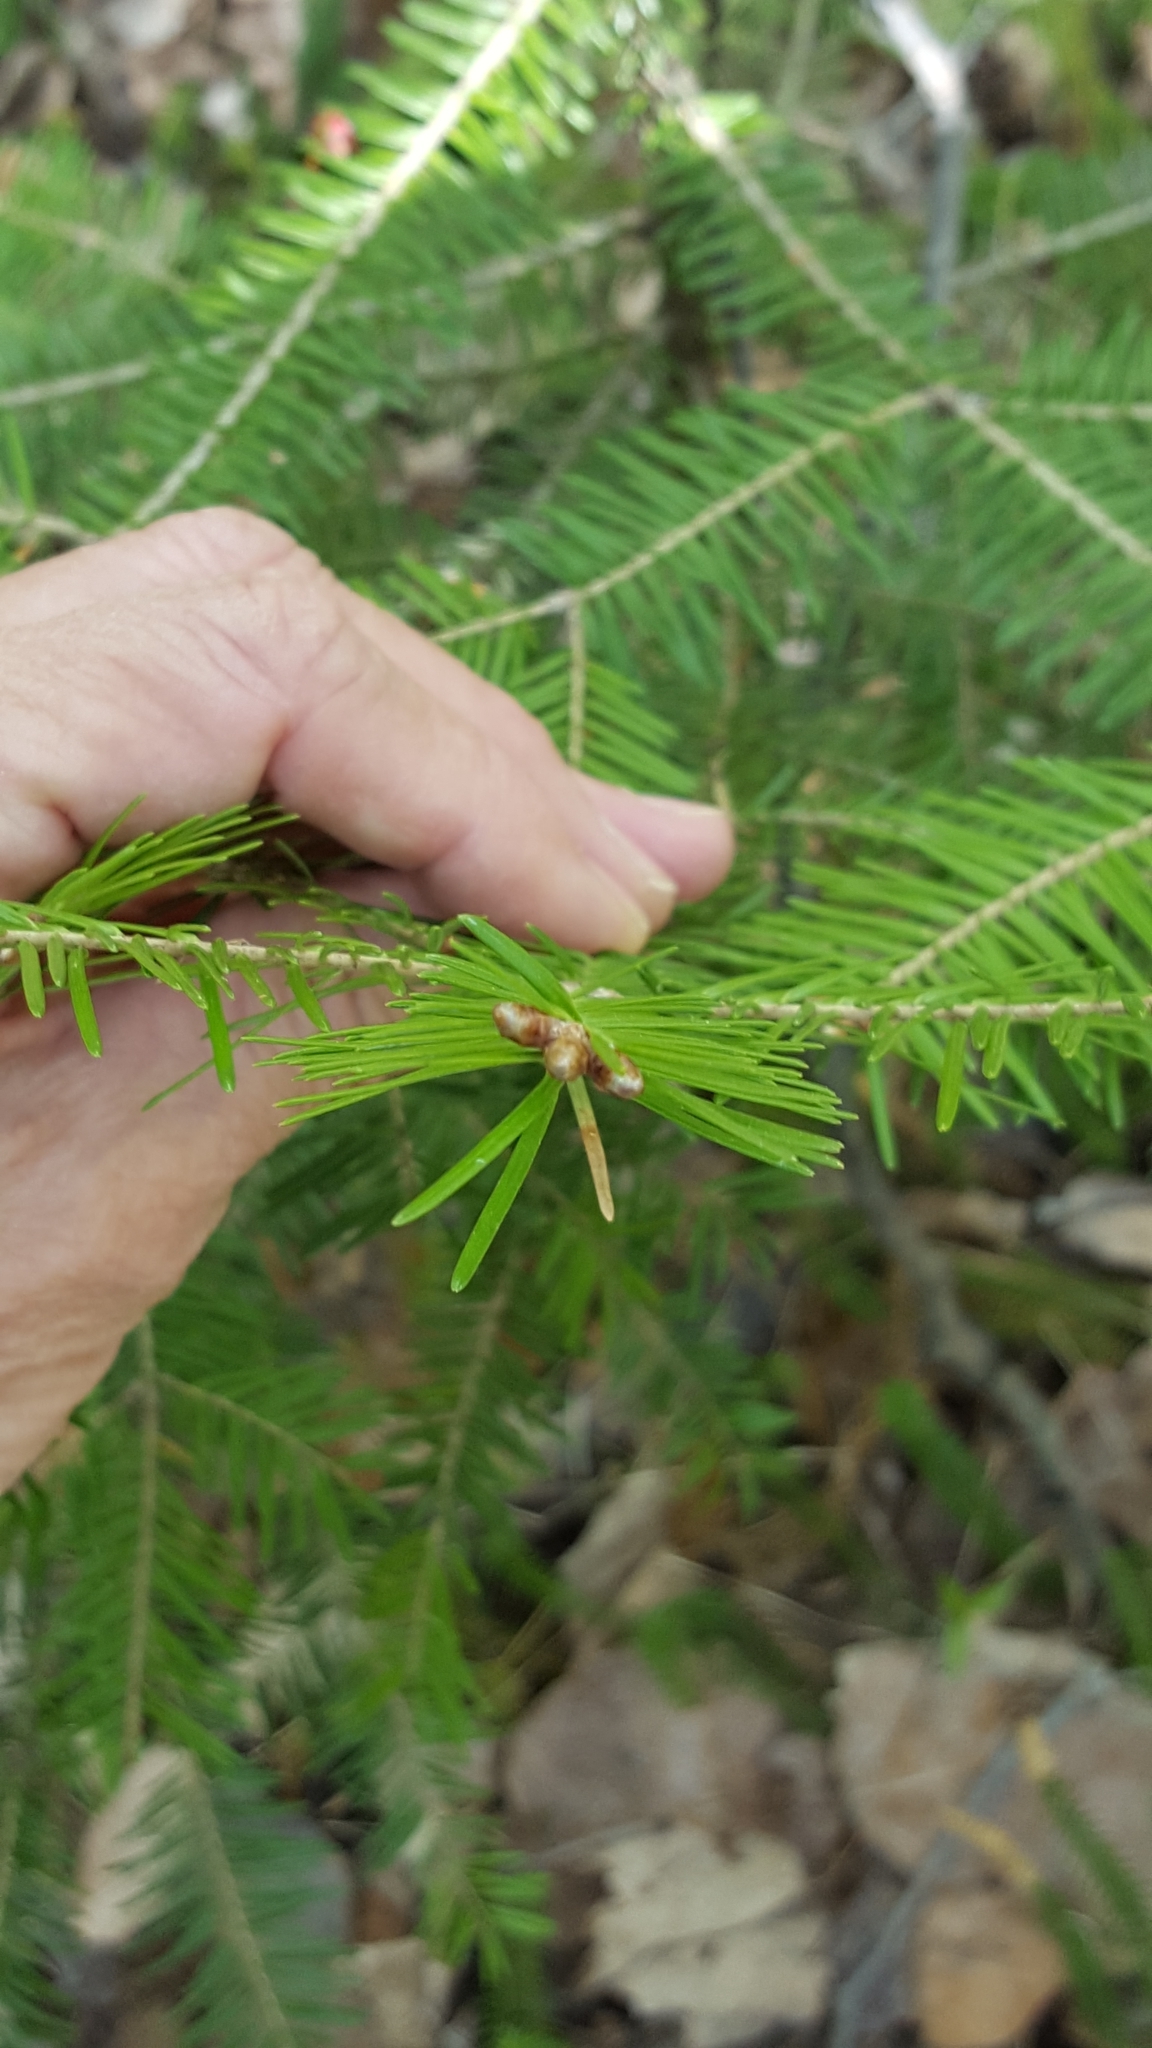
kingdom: Plantae
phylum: Tracheophyta
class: Pinopsida
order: Pinales
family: Pinaceae
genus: Abies
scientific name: Abies balsamea
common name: Balsam fir
